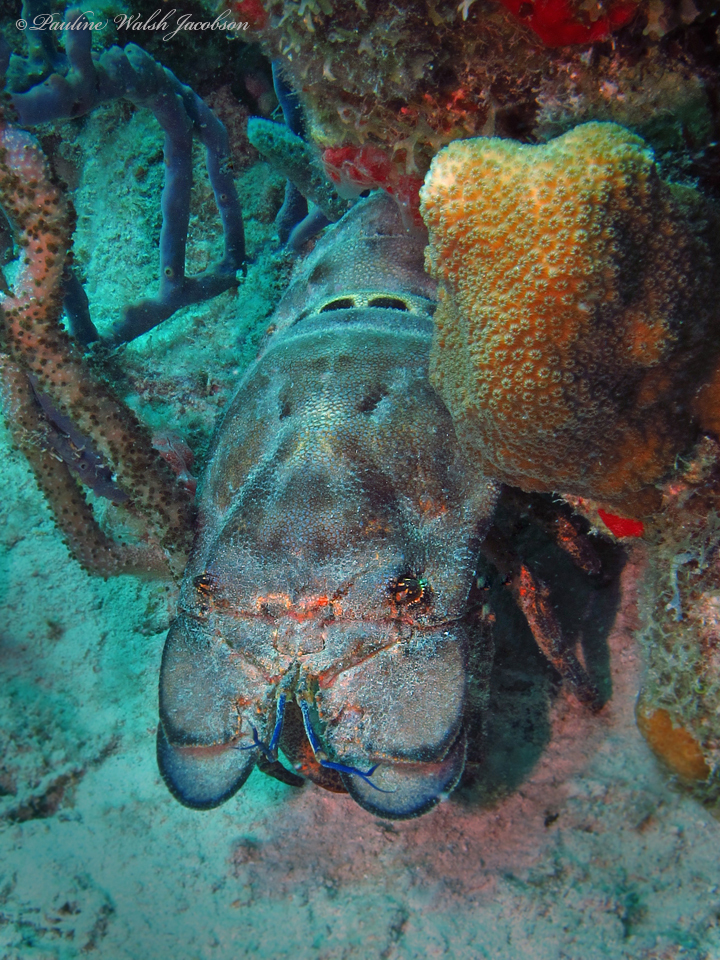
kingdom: Animalia
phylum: Arthropoda
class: Malacostraca
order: Decapoda
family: Scyllaridae
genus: Scyllarides
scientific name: Scyllarides aequinoctialis
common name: Spanish slipper lobster
